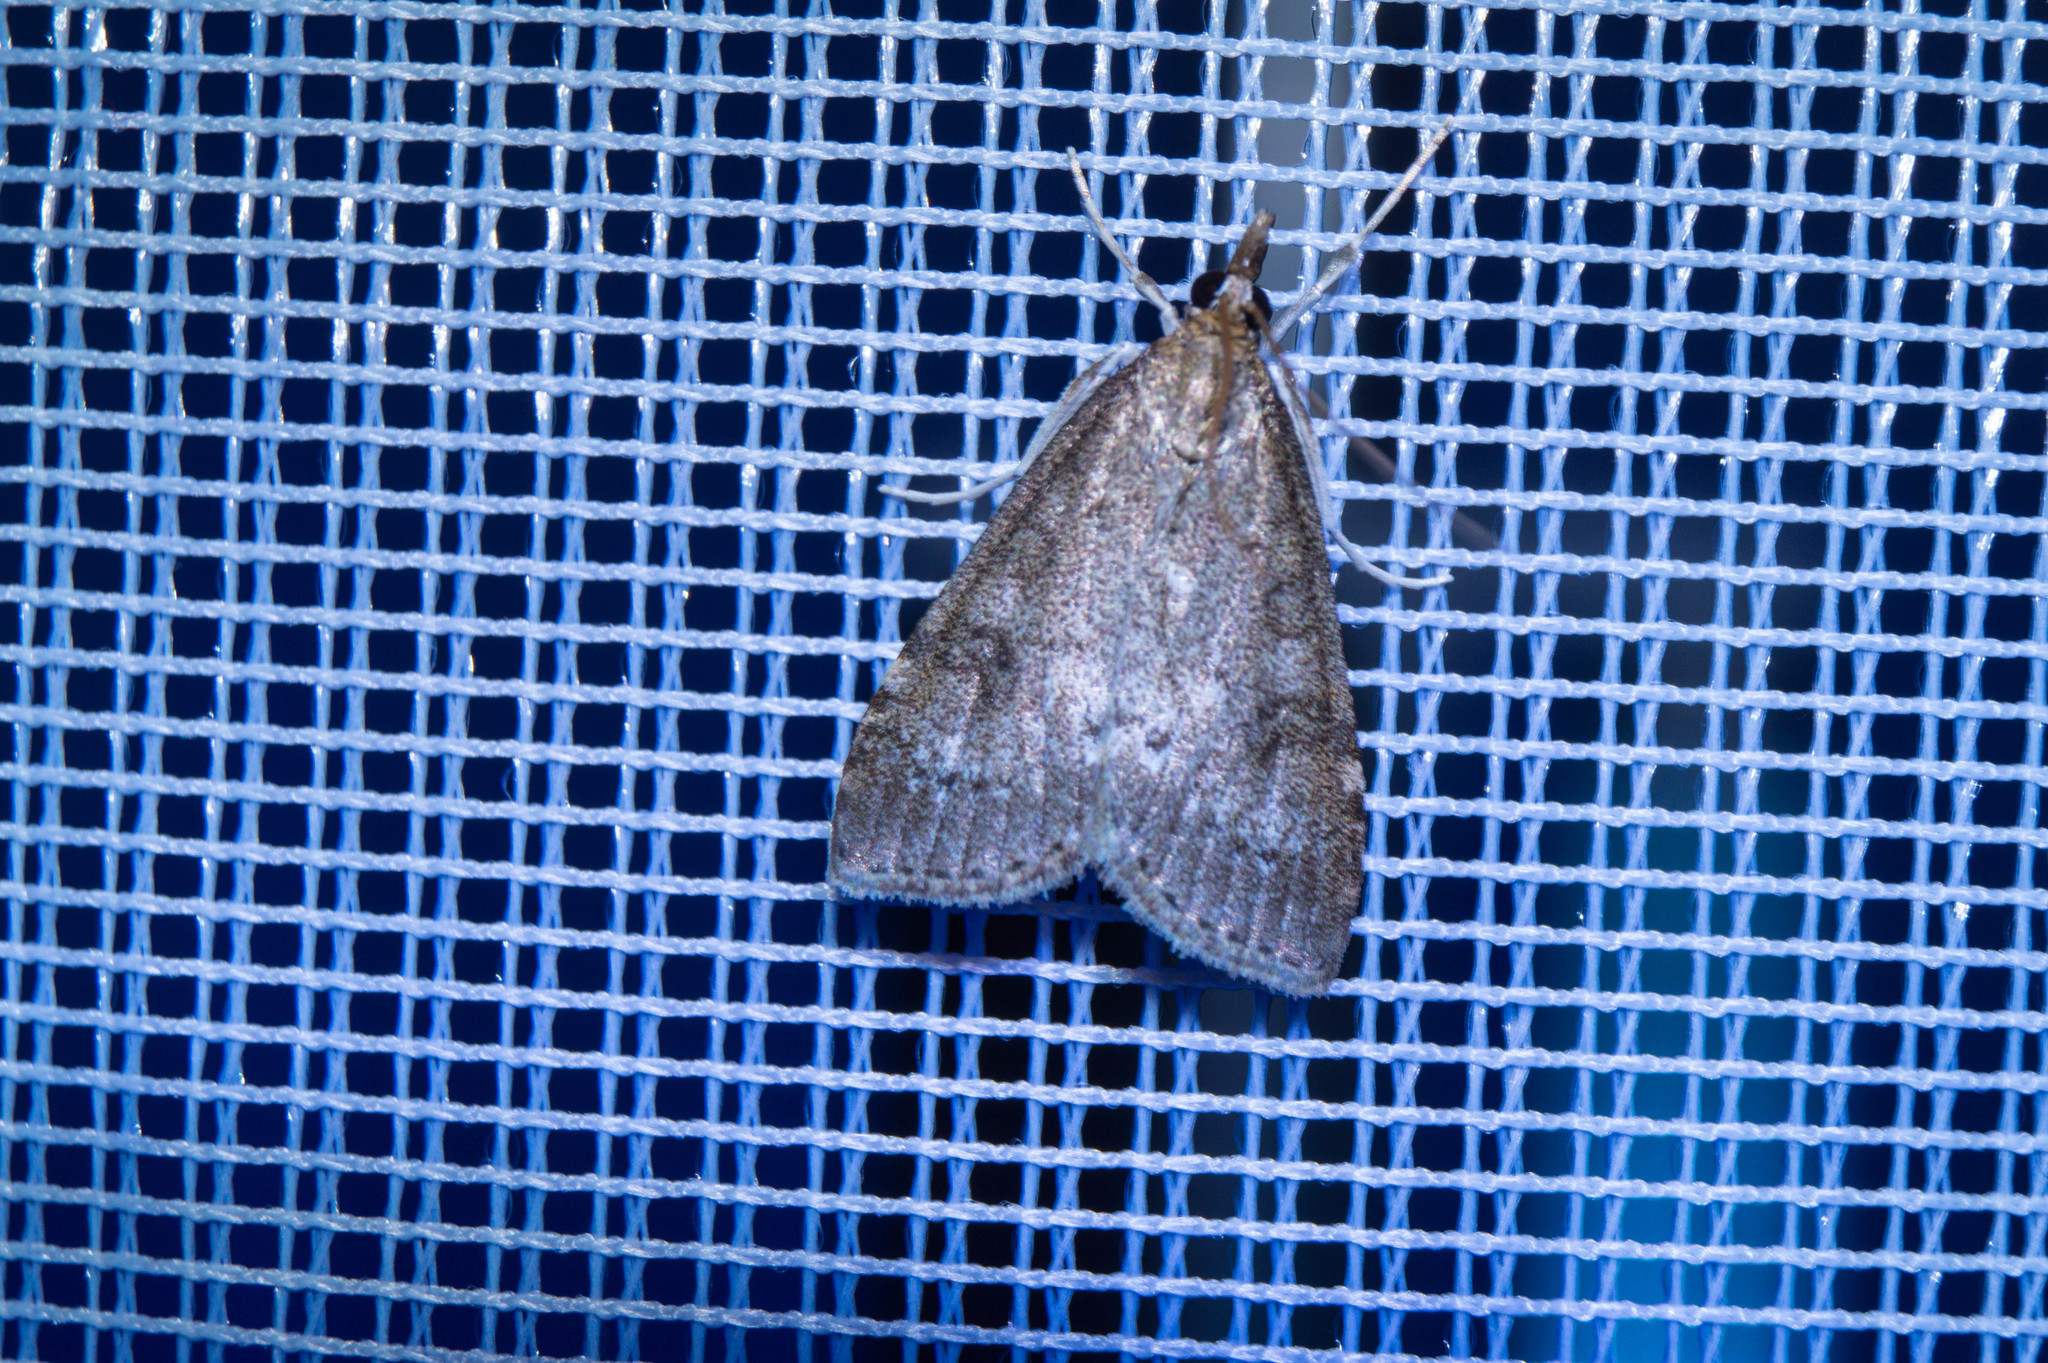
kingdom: Animalia
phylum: Arthropoda
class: Insecta
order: Lepidoptera
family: Crambidae
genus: Udea
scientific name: Udea prunalis
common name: Dusky pearl
